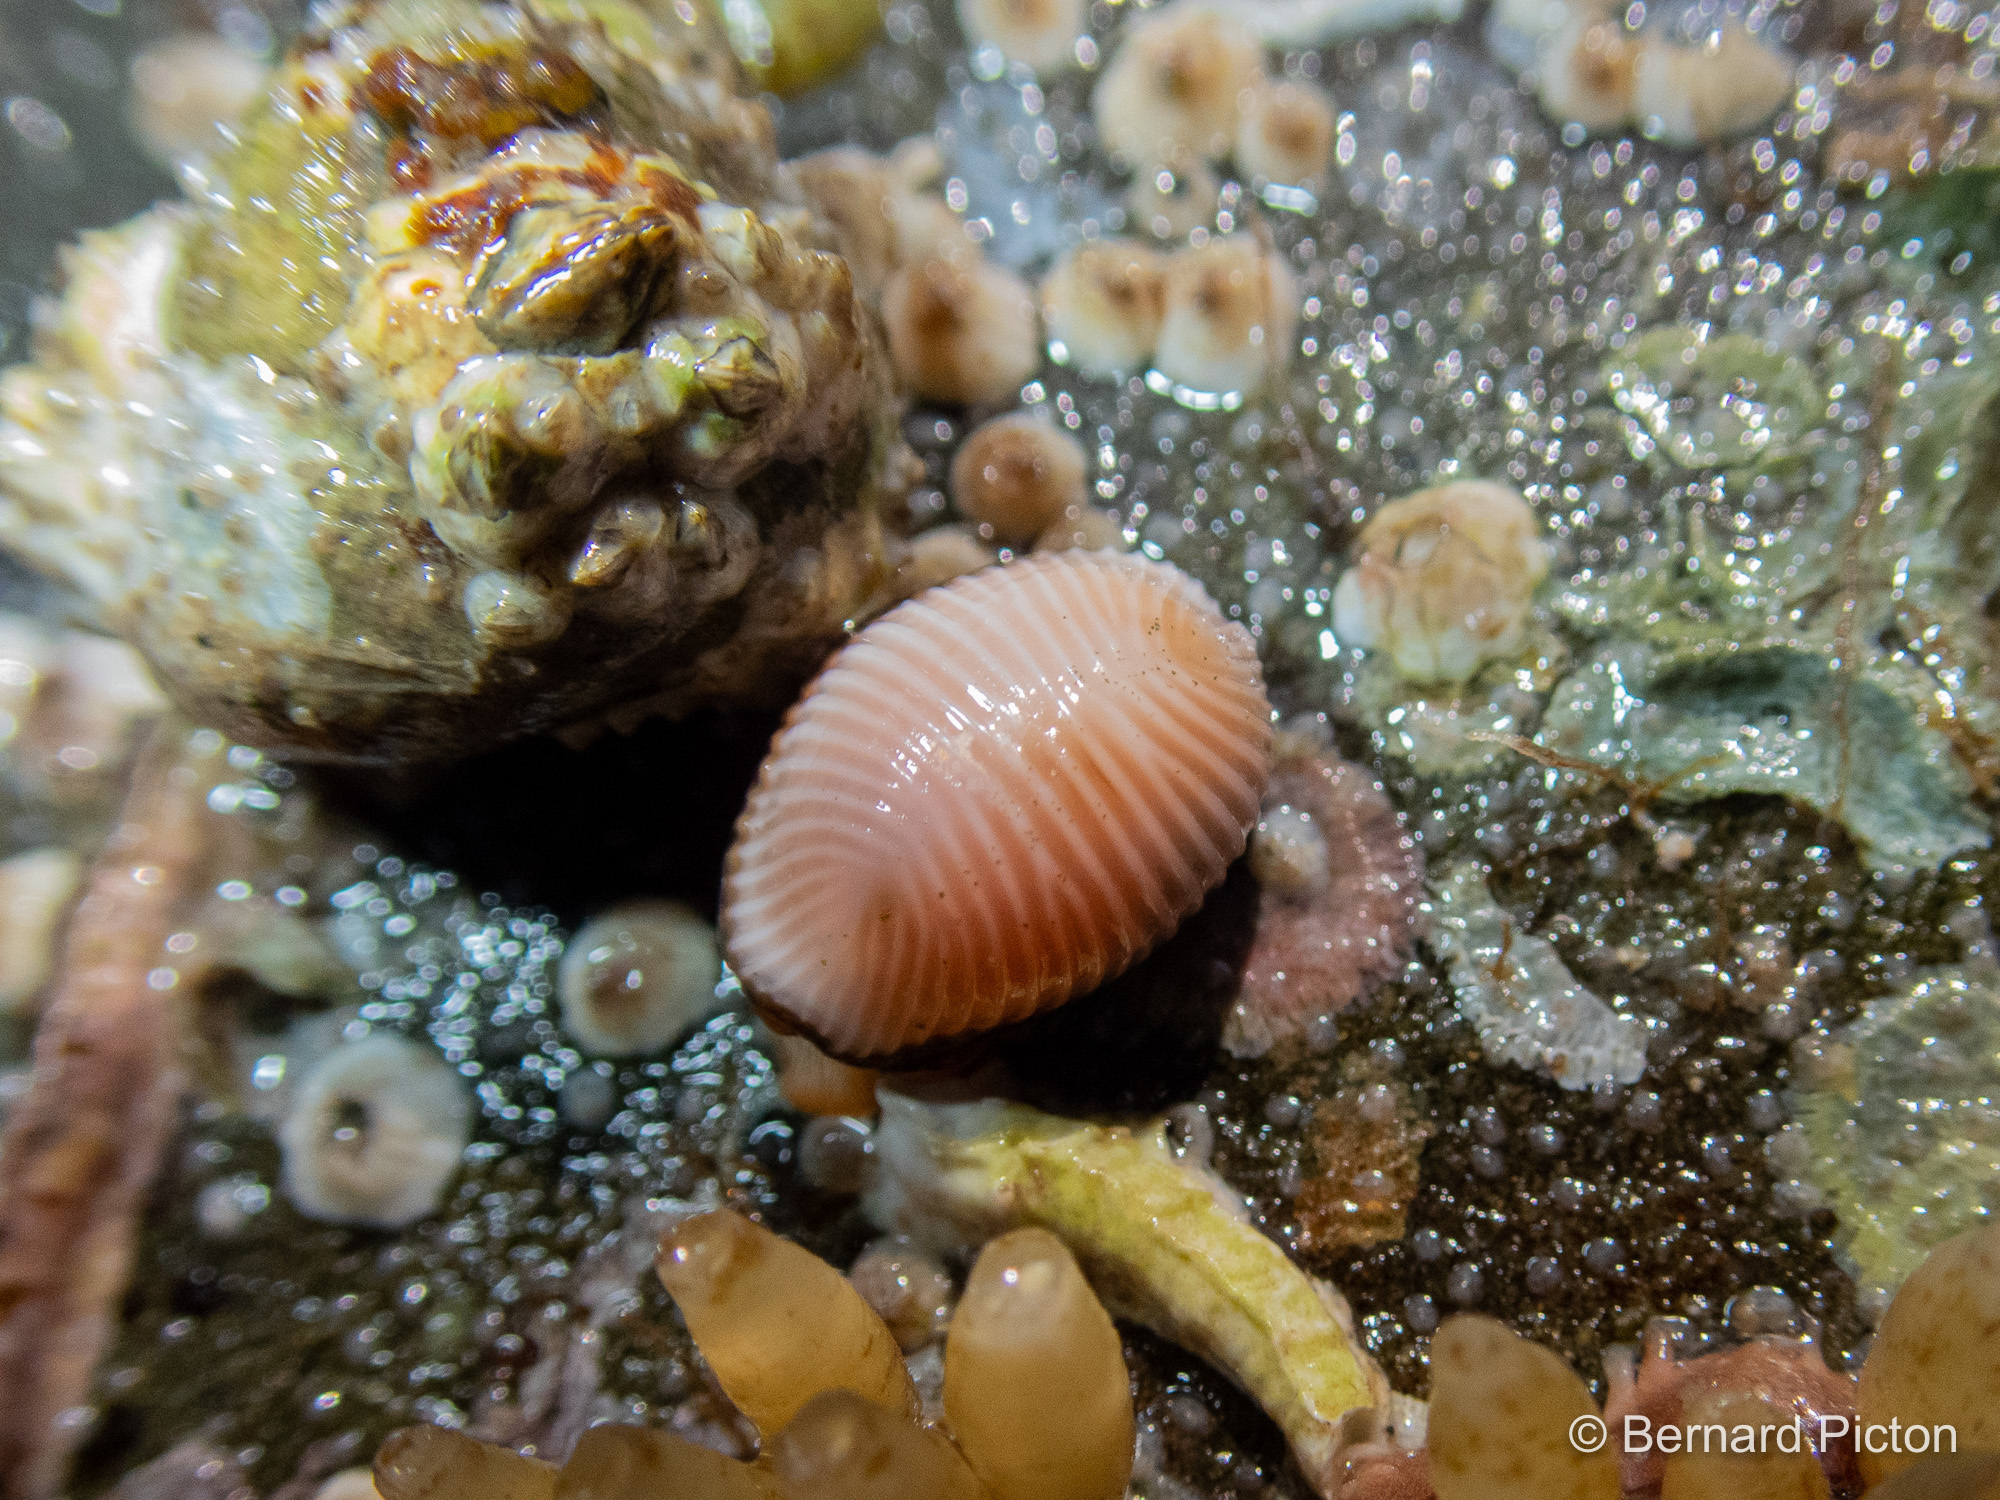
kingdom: Animalia
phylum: Mollusca
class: Gastropoda
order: Littorinimorpha
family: Triviidae
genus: Trivia
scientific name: Trivia arctica
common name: Arctic cowrie
